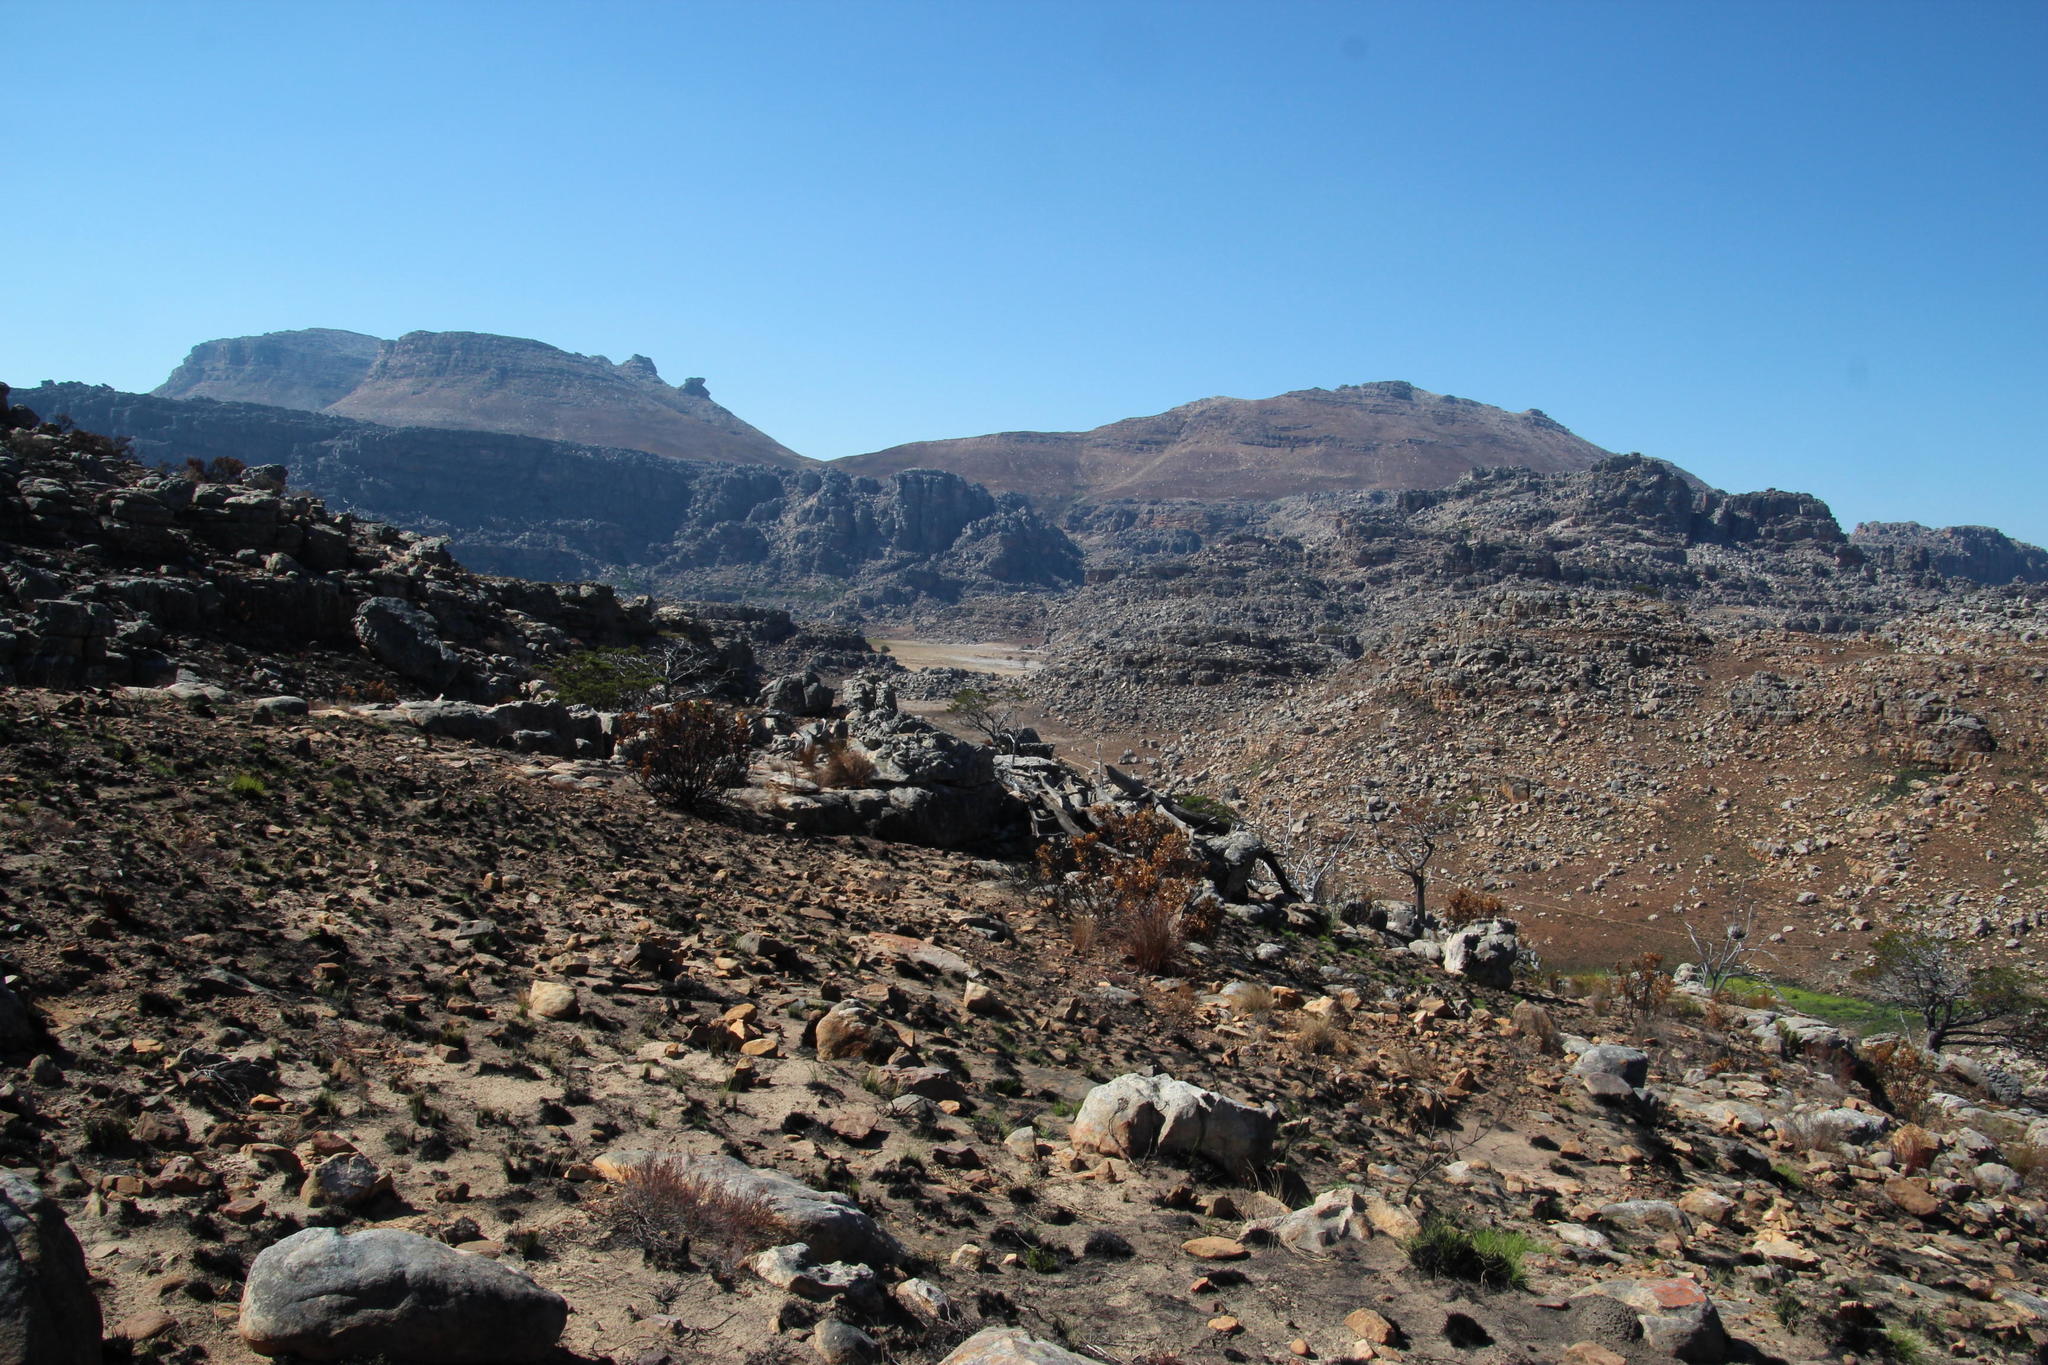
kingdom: Plantae
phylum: Tracheophyta
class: Magnoliopsida
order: Proteales
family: Proteaceae
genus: Protea
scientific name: Protea repens
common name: Sugarbush
